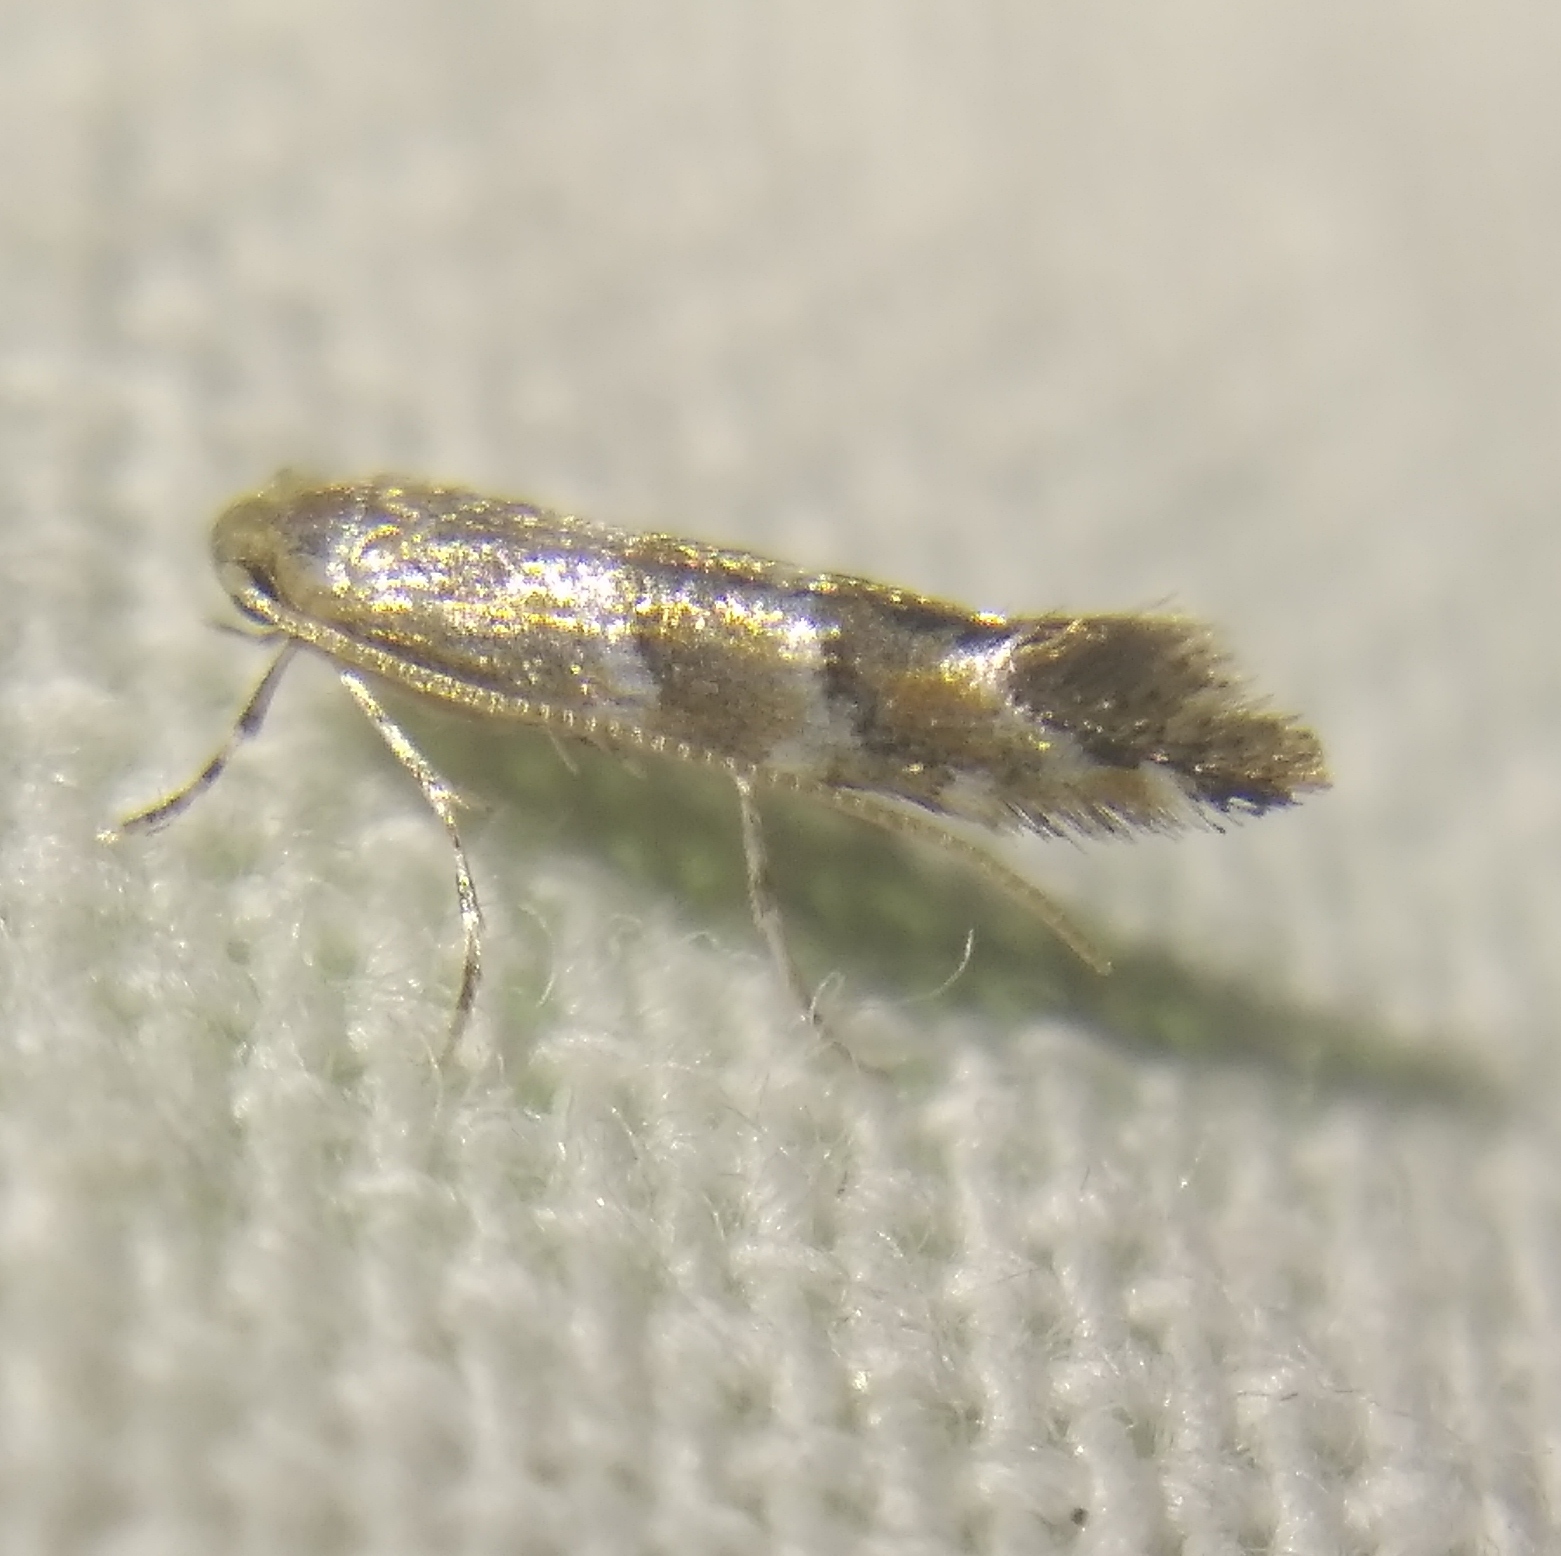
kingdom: Animalia
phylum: Arthropoda
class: Insecta
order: Lepidoptera
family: Gracillariidae
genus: Cameraria
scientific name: Cameraria ohridella
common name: Horse-chestnut leaf-miner
